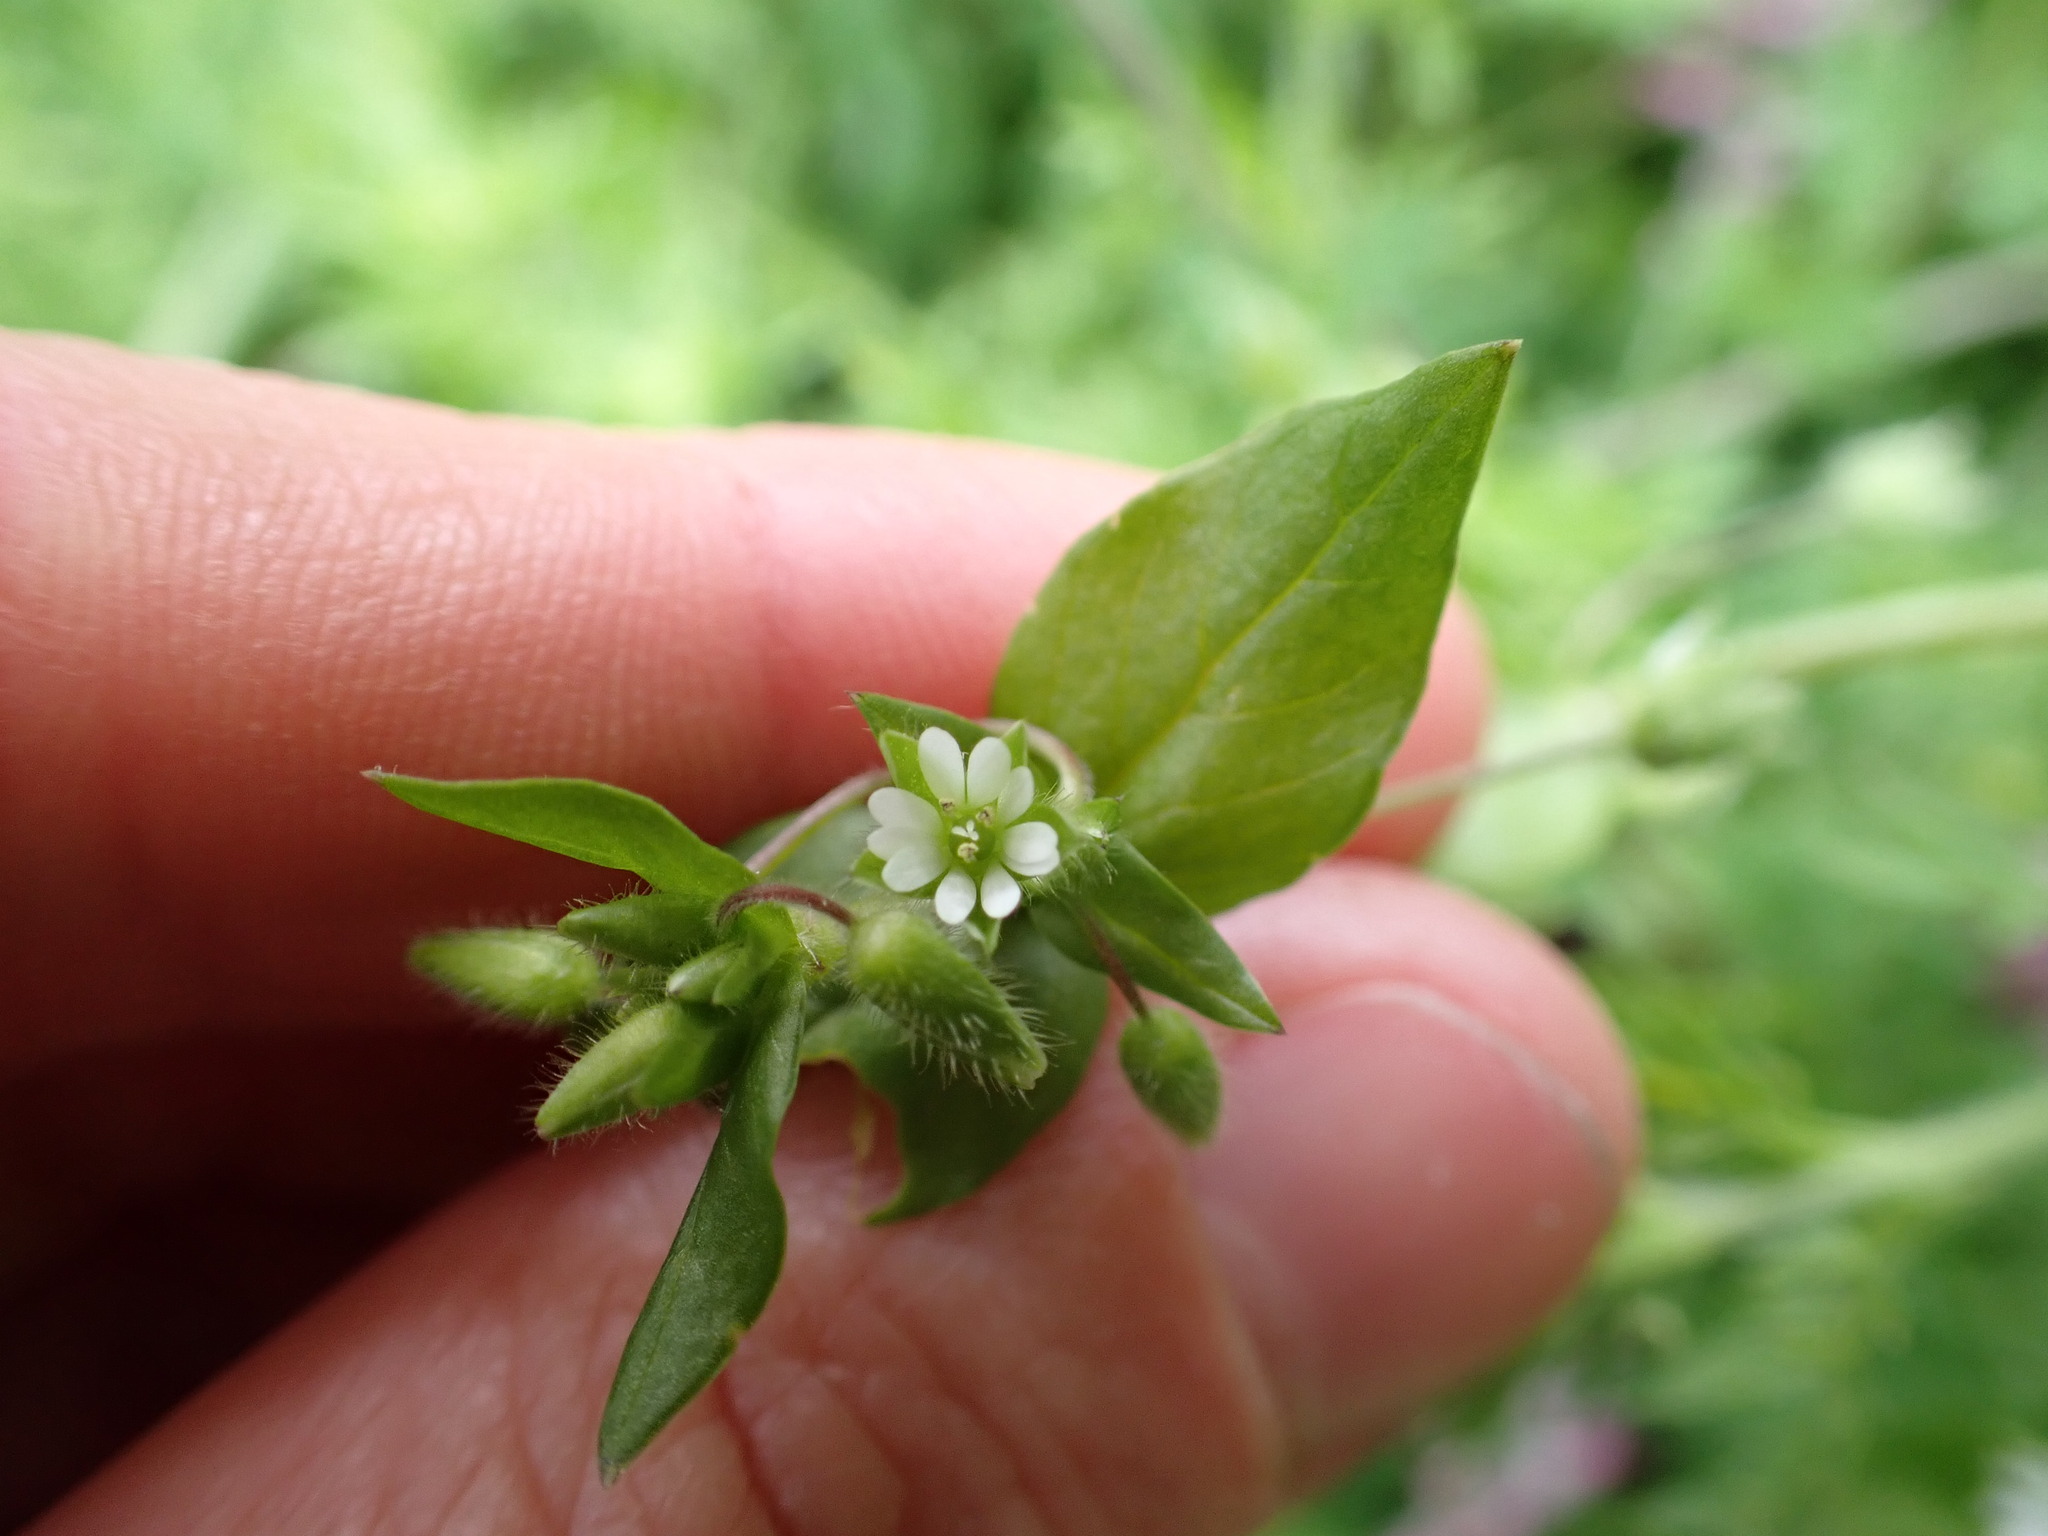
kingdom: Plantae
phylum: Tracheophyta
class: Magnoliopsida
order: Caryophyllales
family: Caryophyllaceae
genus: Stellaria
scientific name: Stellaria media
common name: Common chickweed
